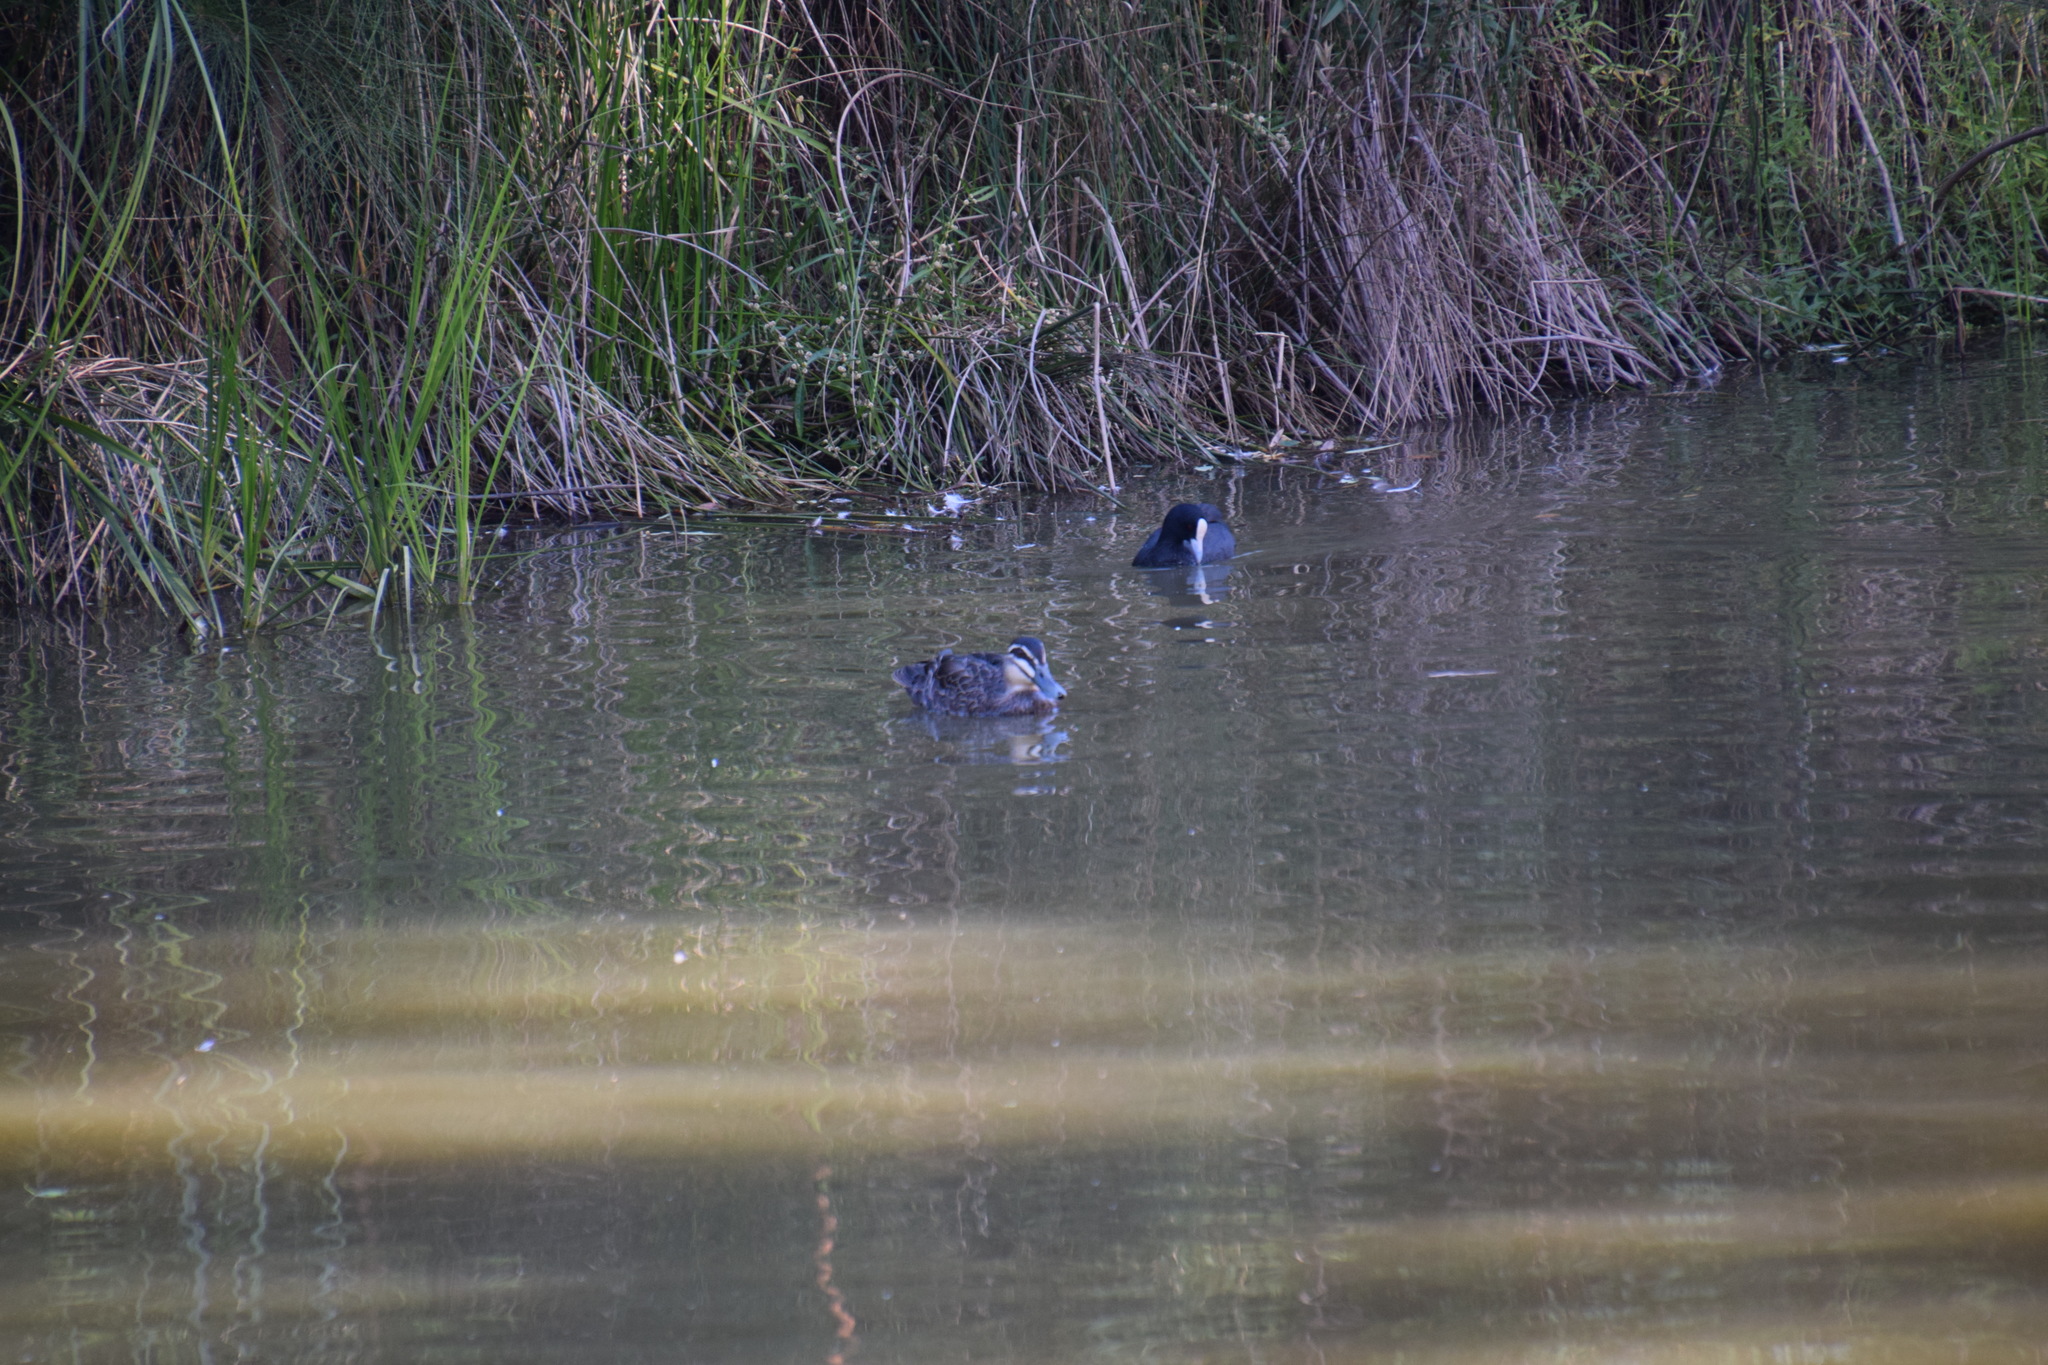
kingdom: Animalia
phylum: Chordata
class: Aves
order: Anseriformes
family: Anatidae
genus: Anas
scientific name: Anas superciliosa
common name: Pacific black duck
